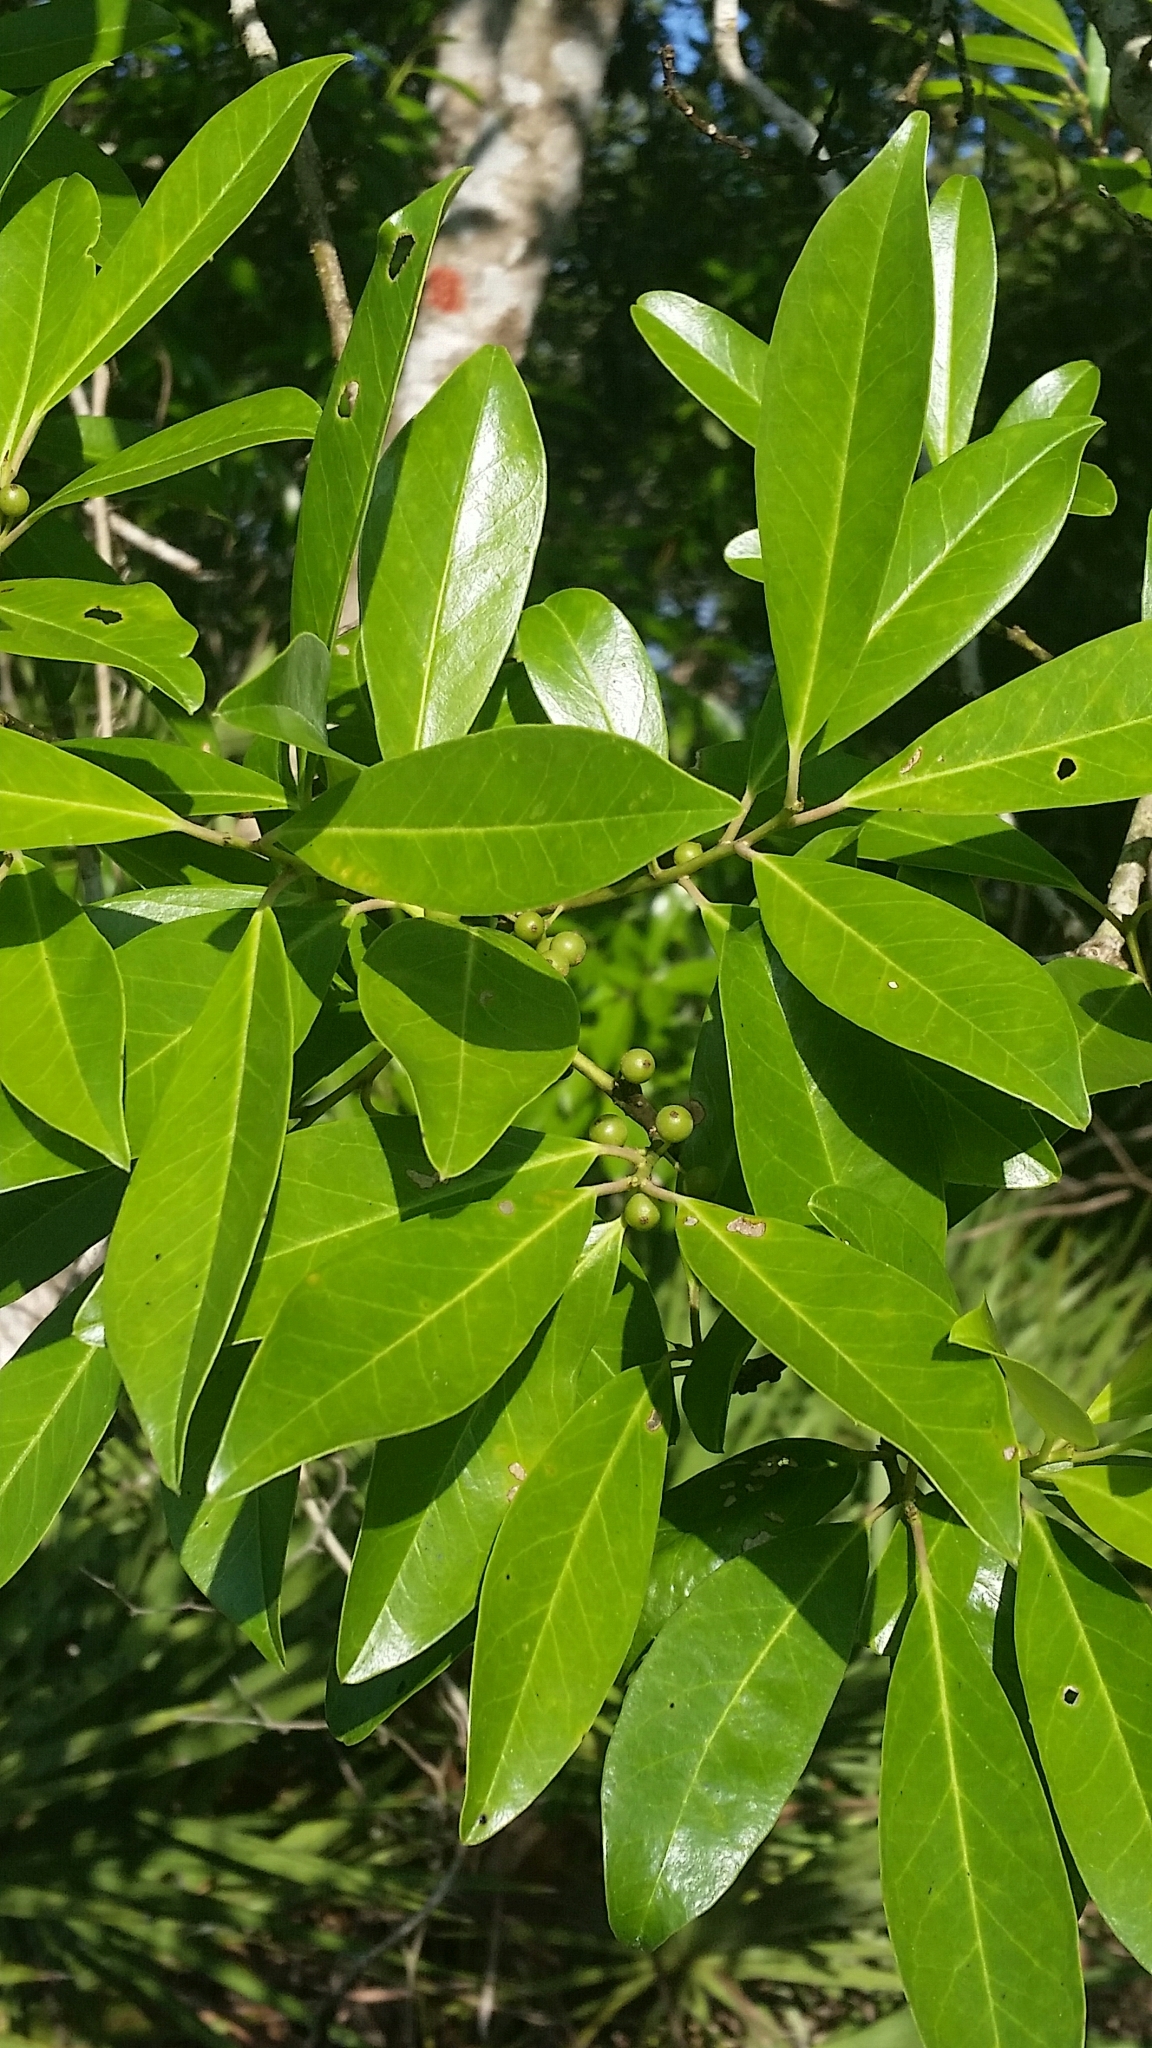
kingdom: Plantae
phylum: Tracheophyta
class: Magnoliopsida
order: Aquifoliales
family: Aquifoliaceae
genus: Ilex
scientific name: Ilex cassine
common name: Dahoon
